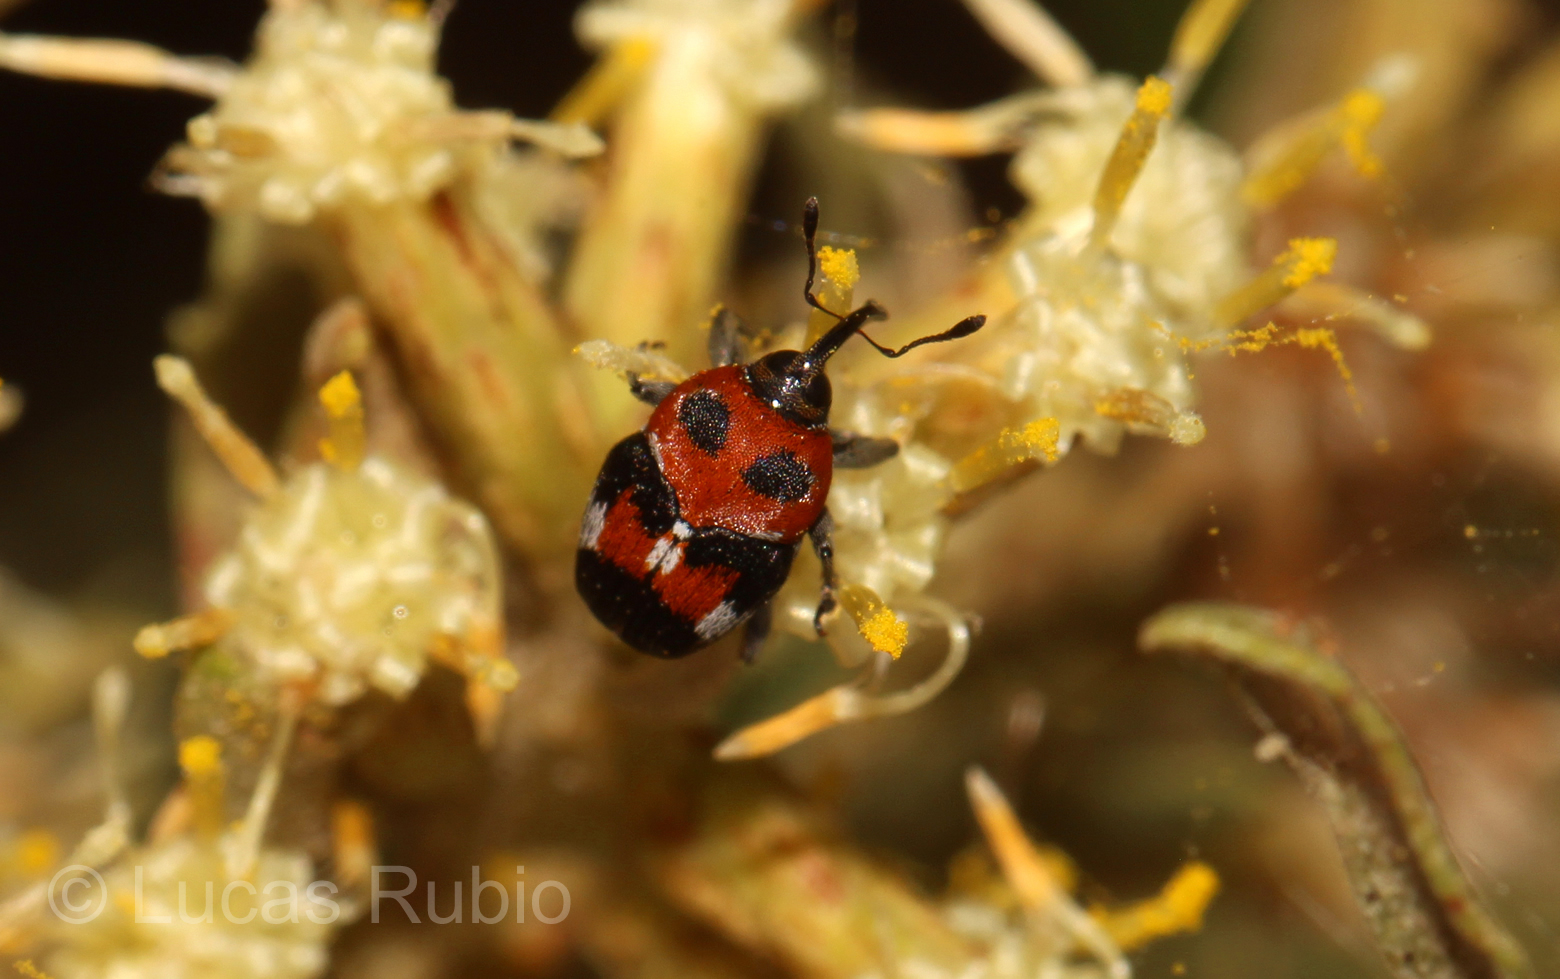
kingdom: Animalia
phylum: Arthropoda
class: Insecta
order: Coleoptera
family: Curculionidae
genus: Leptoschoinus
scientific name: Leptoschoinus fucatus
